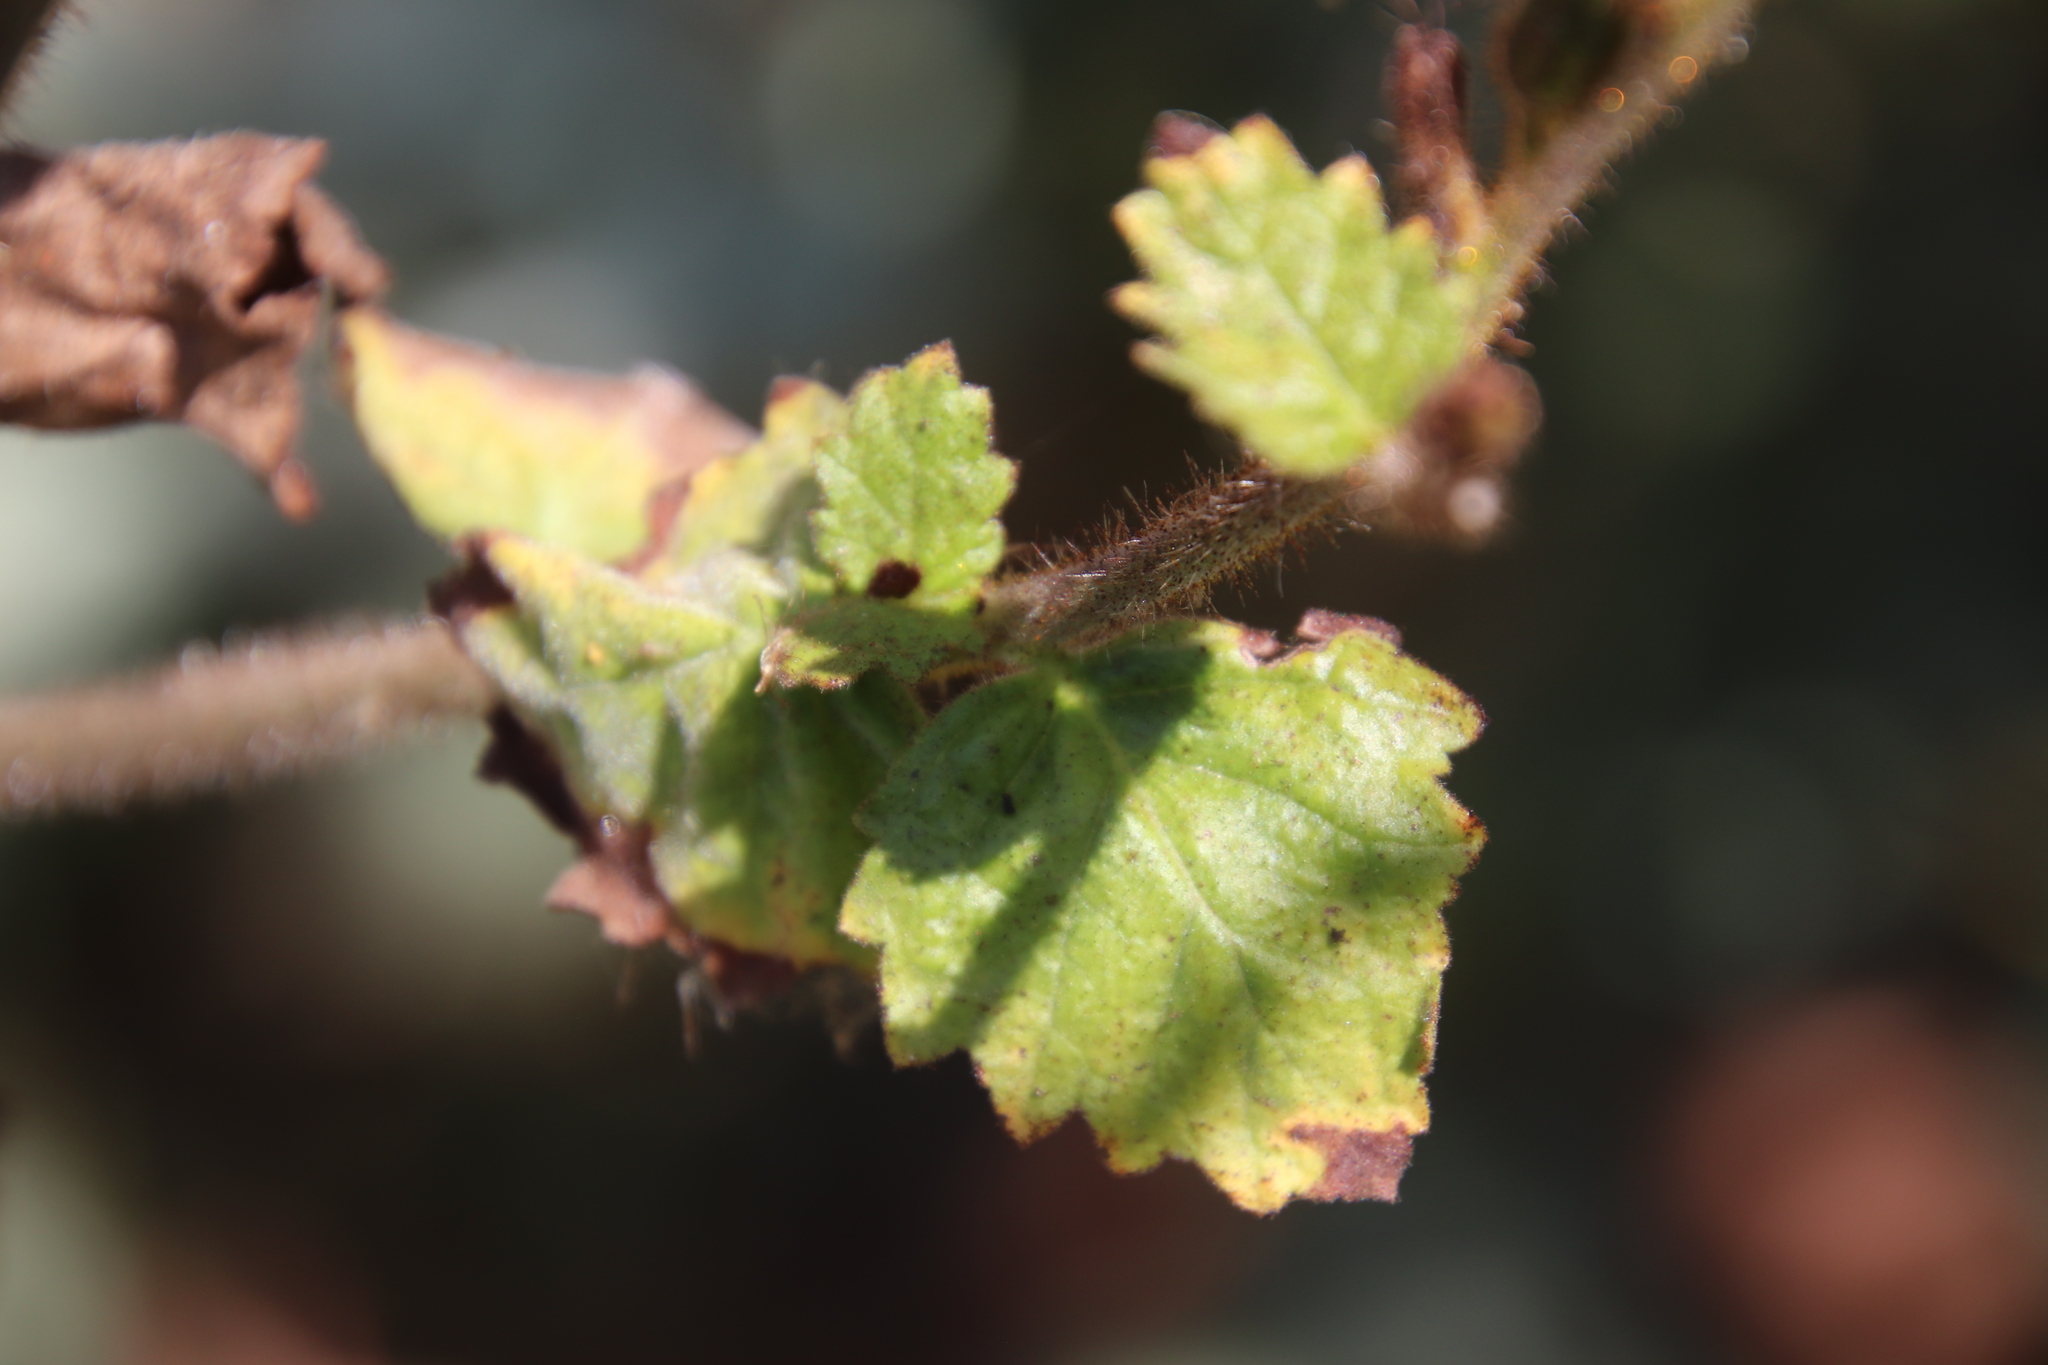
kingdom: Plantae
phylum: Tracheophyta
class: Magnoliopsida
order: Boraginales
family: Hydrophyllaceae
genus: Phacelia
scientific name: Phacelia grandiflora
